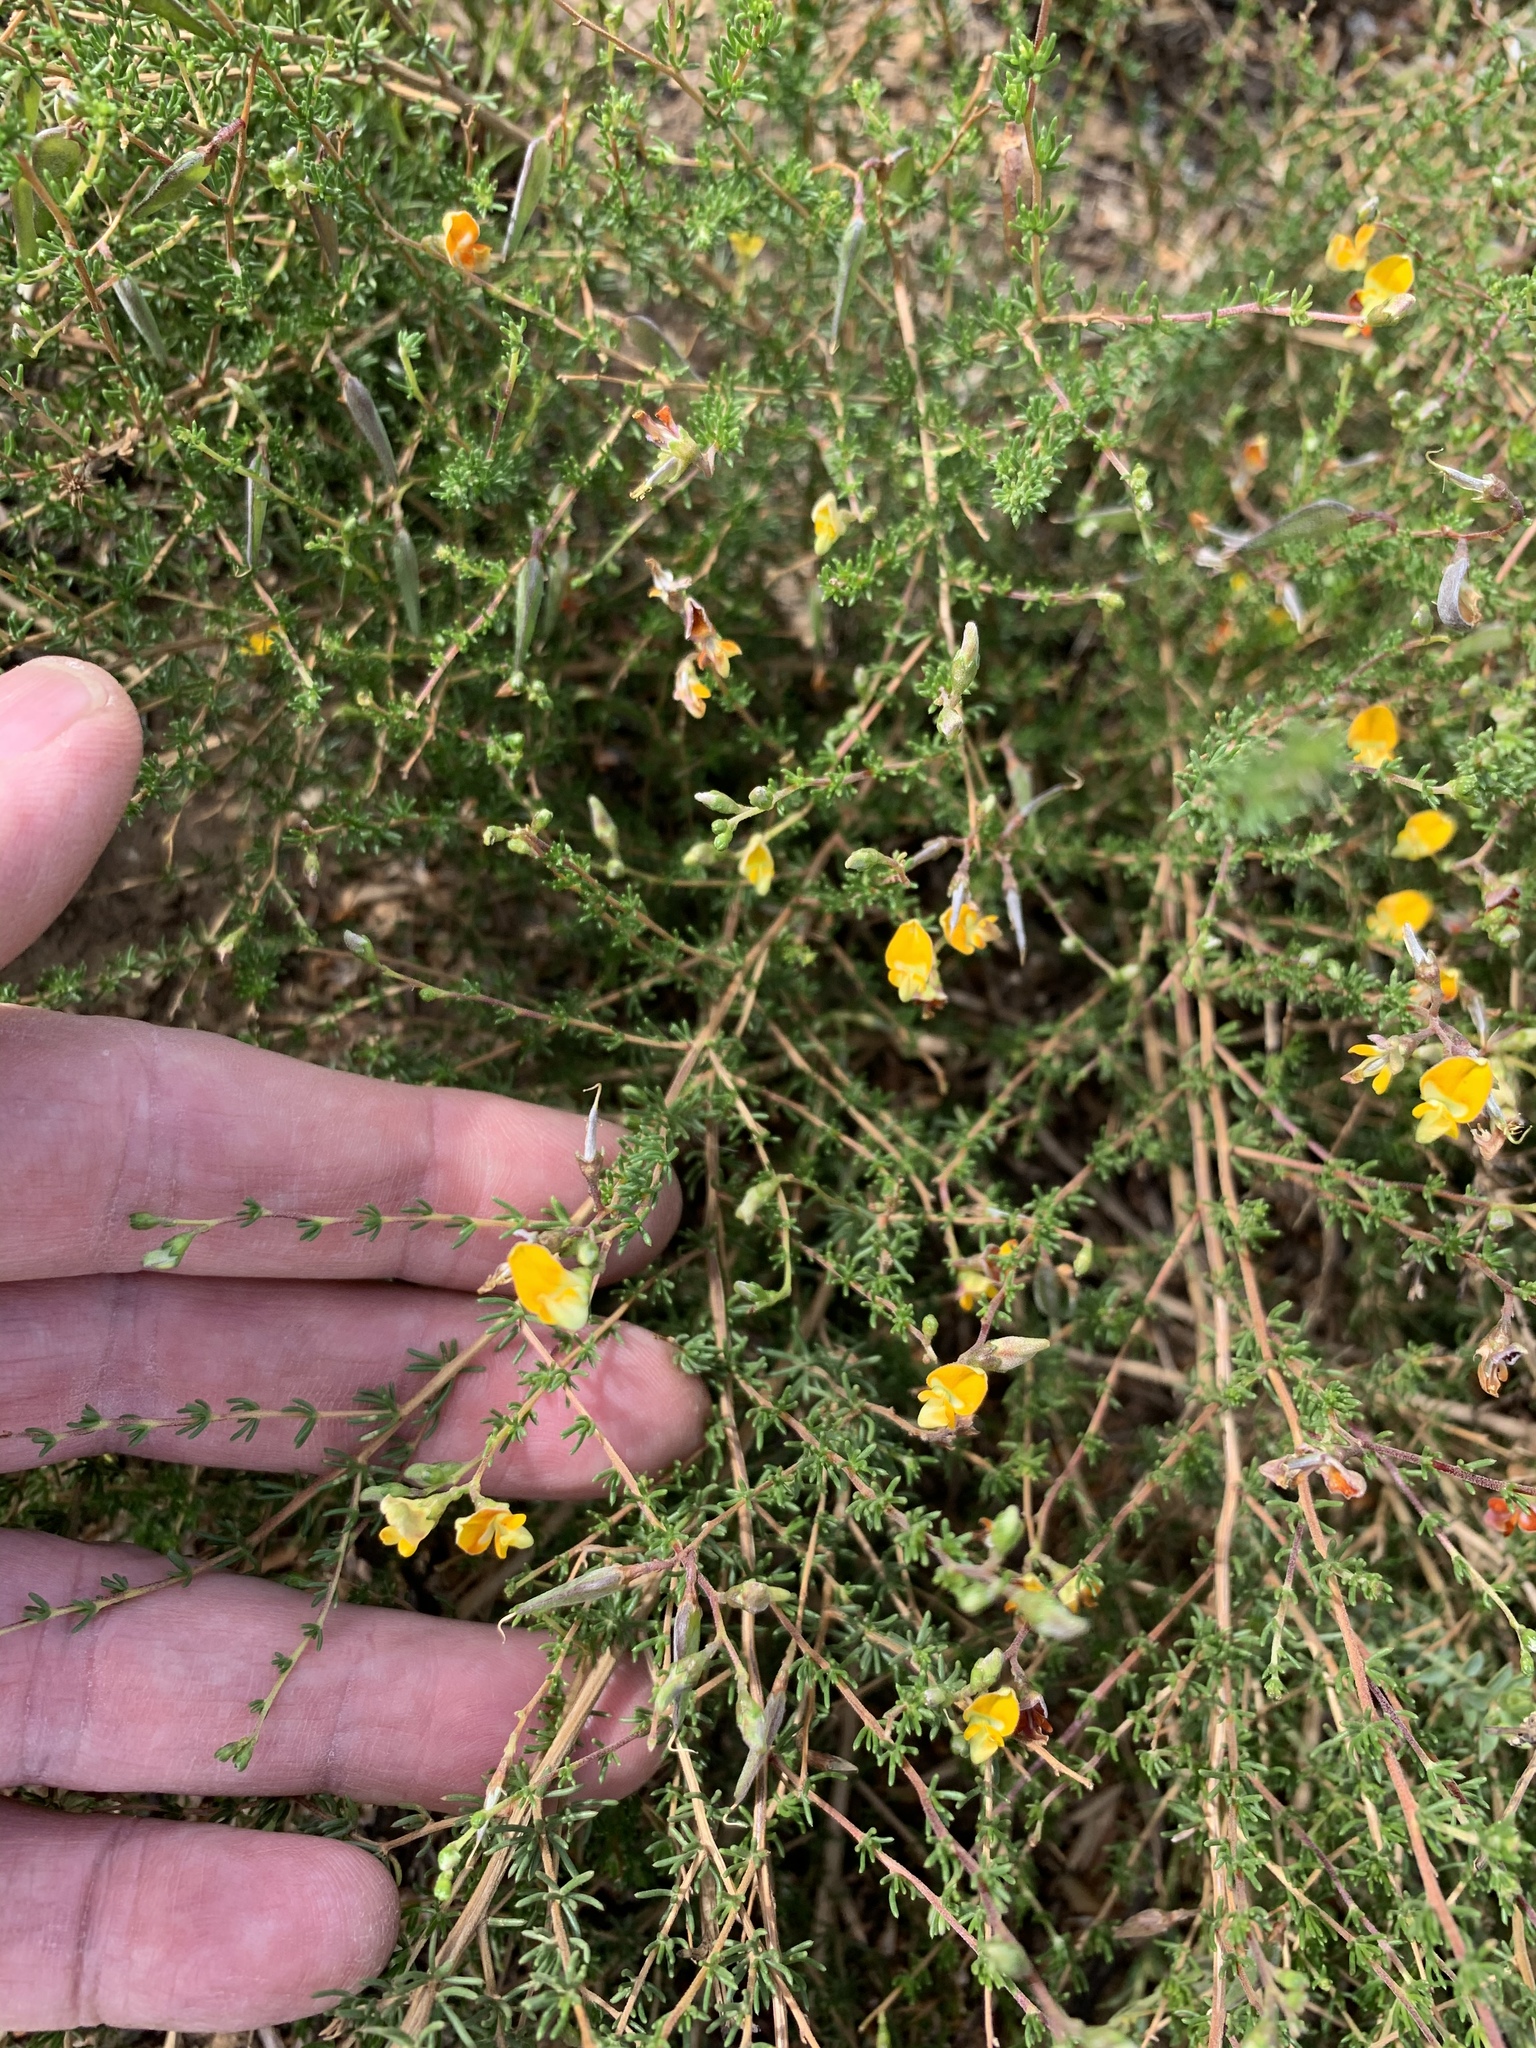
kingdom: Plantae
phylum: Tracheophyta
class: Magnoliopsida
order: Fabales
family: Fabaceae
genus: Aspalathus
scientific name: Aspalathus biflora
